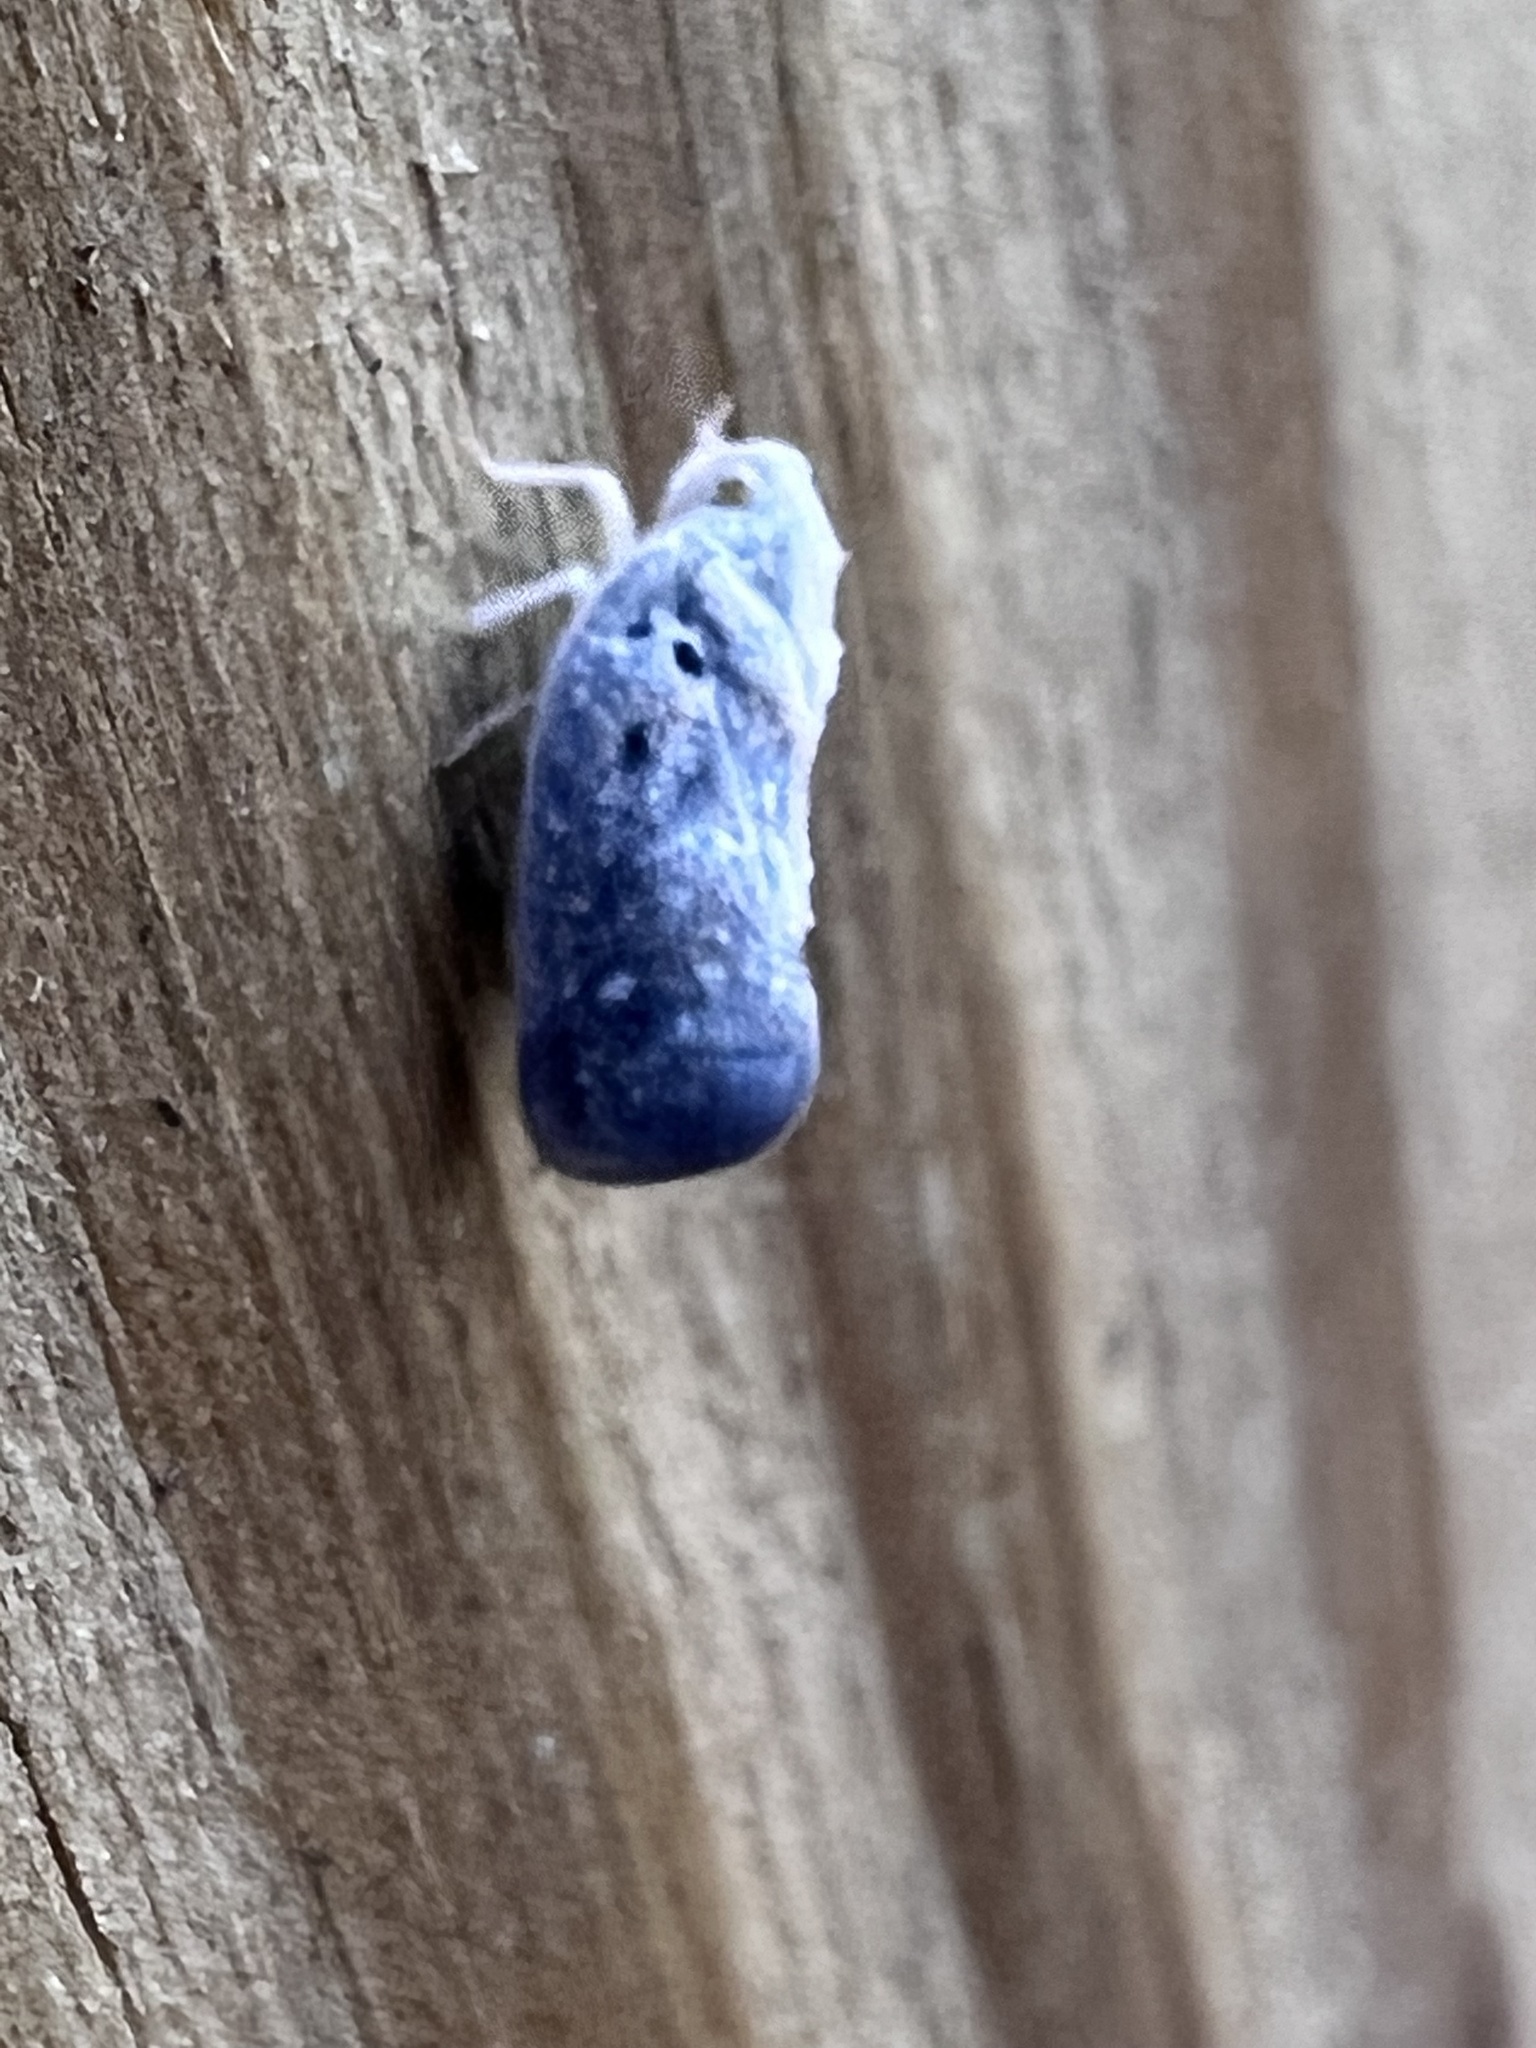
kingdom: Animalia
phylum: Arthropoda
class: Insecta
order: Hemiptera
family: Flatidae
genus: Metcalfa
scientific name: Metcalfa pruinosa
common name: Citrus flatid planthopper
